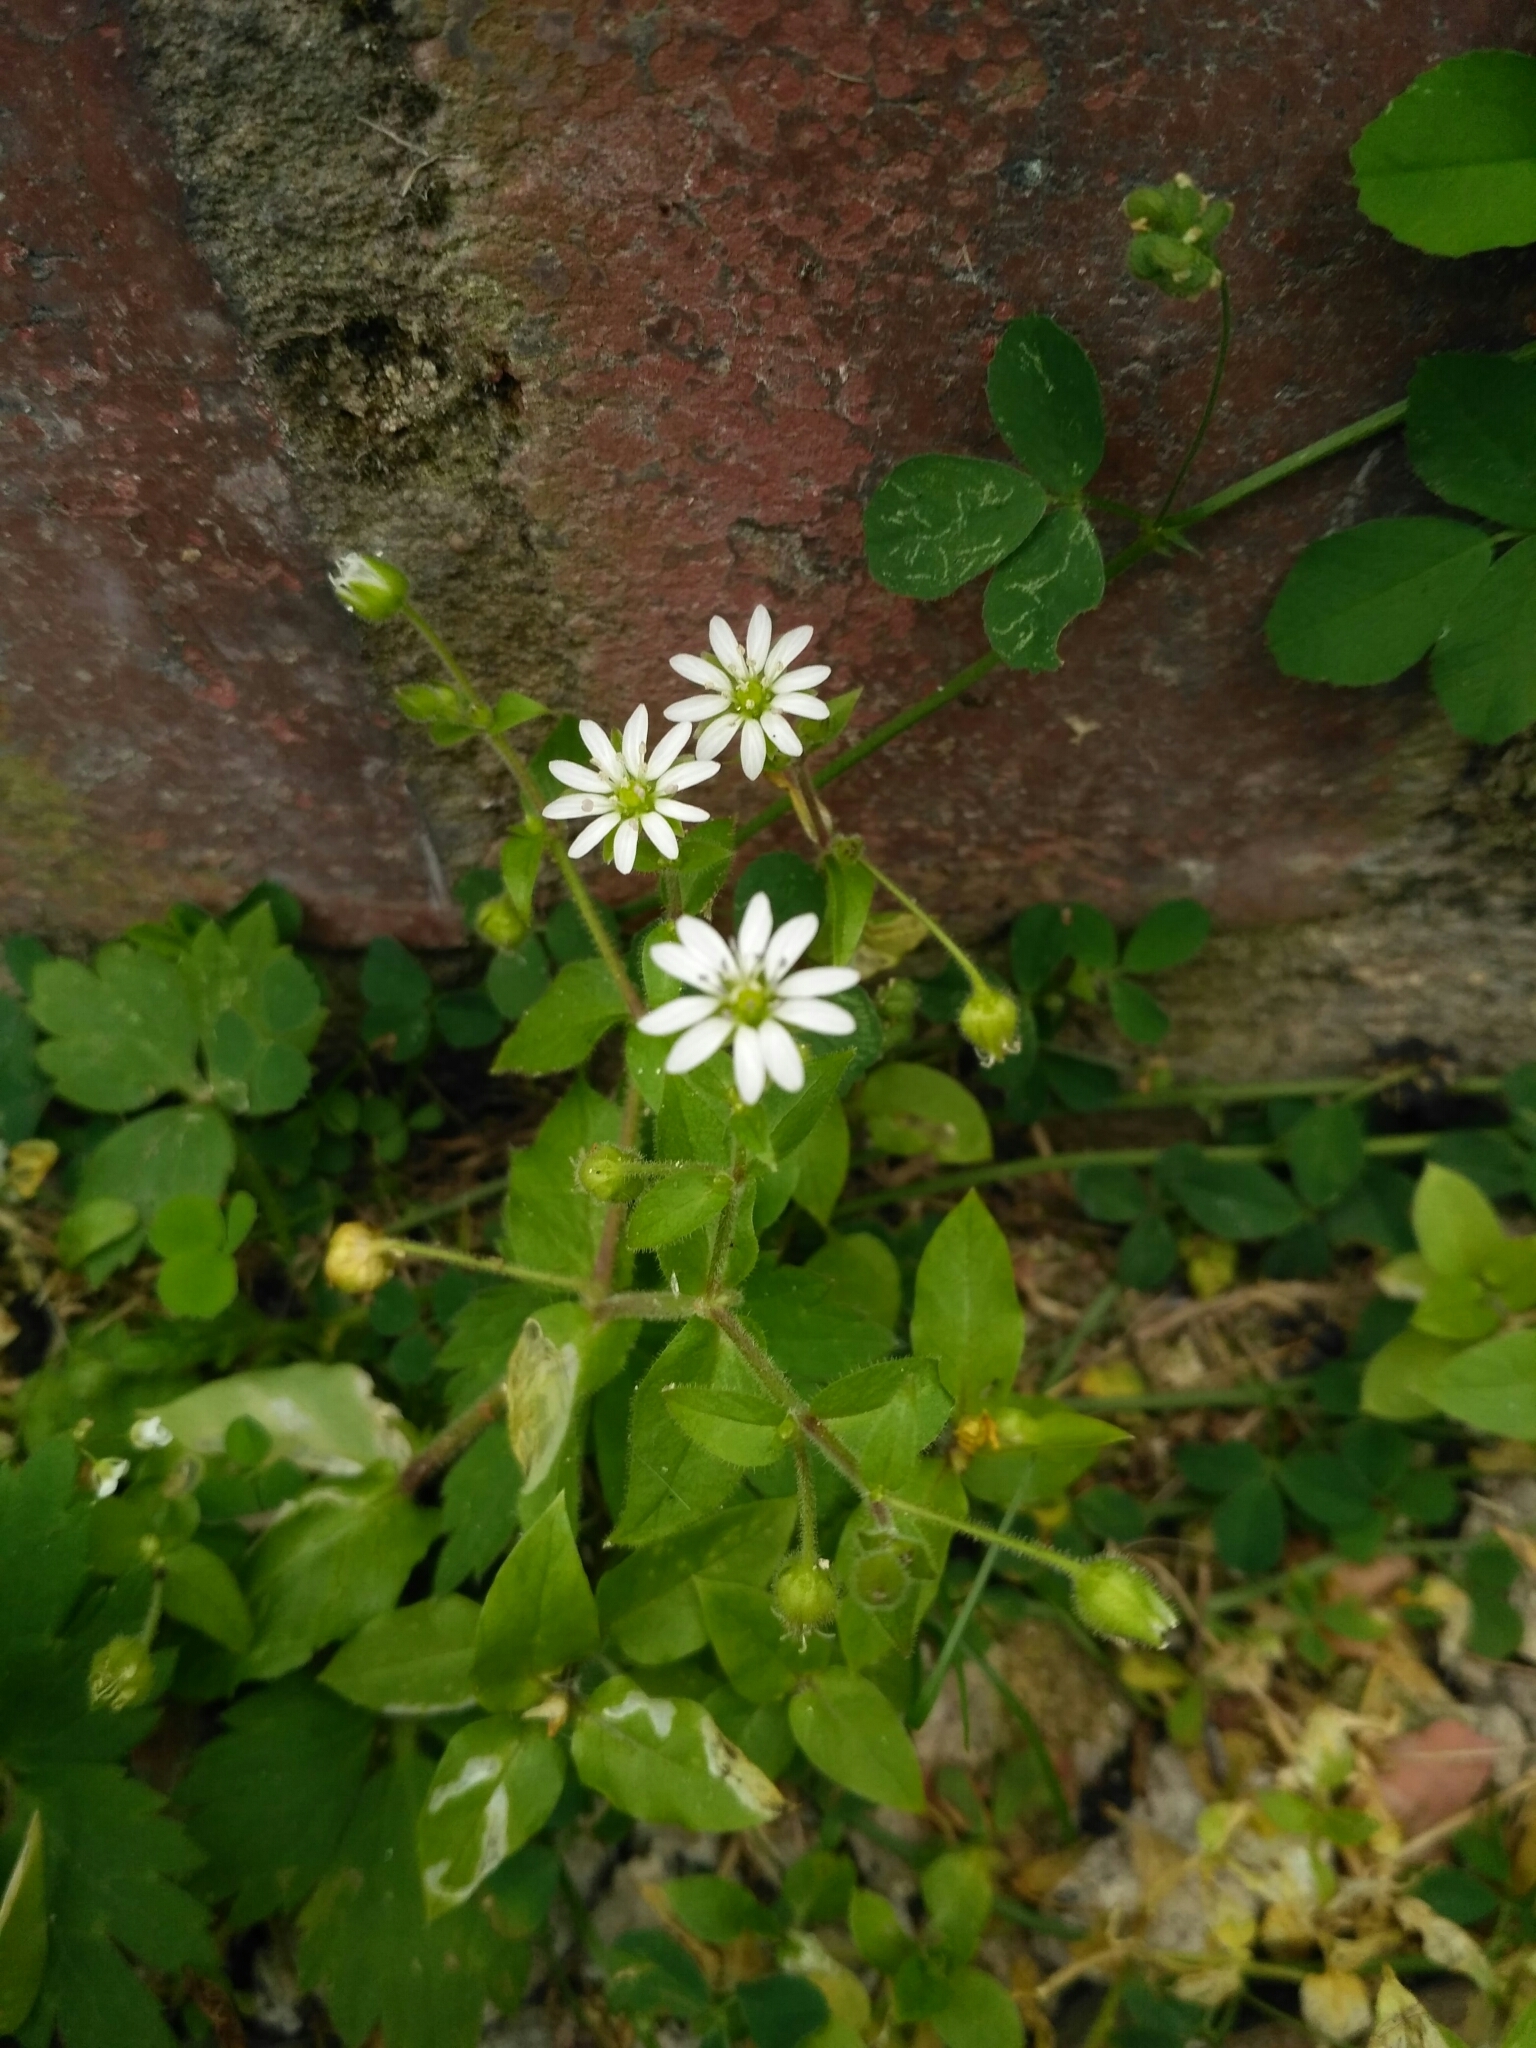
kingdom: Plantae
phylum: Tracheophyta
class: Magnoliopsida
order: Caryophyllales
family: Caryophyllaceae
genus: Stellaria
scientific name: Stellaria aquatica
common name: Water chickweed
